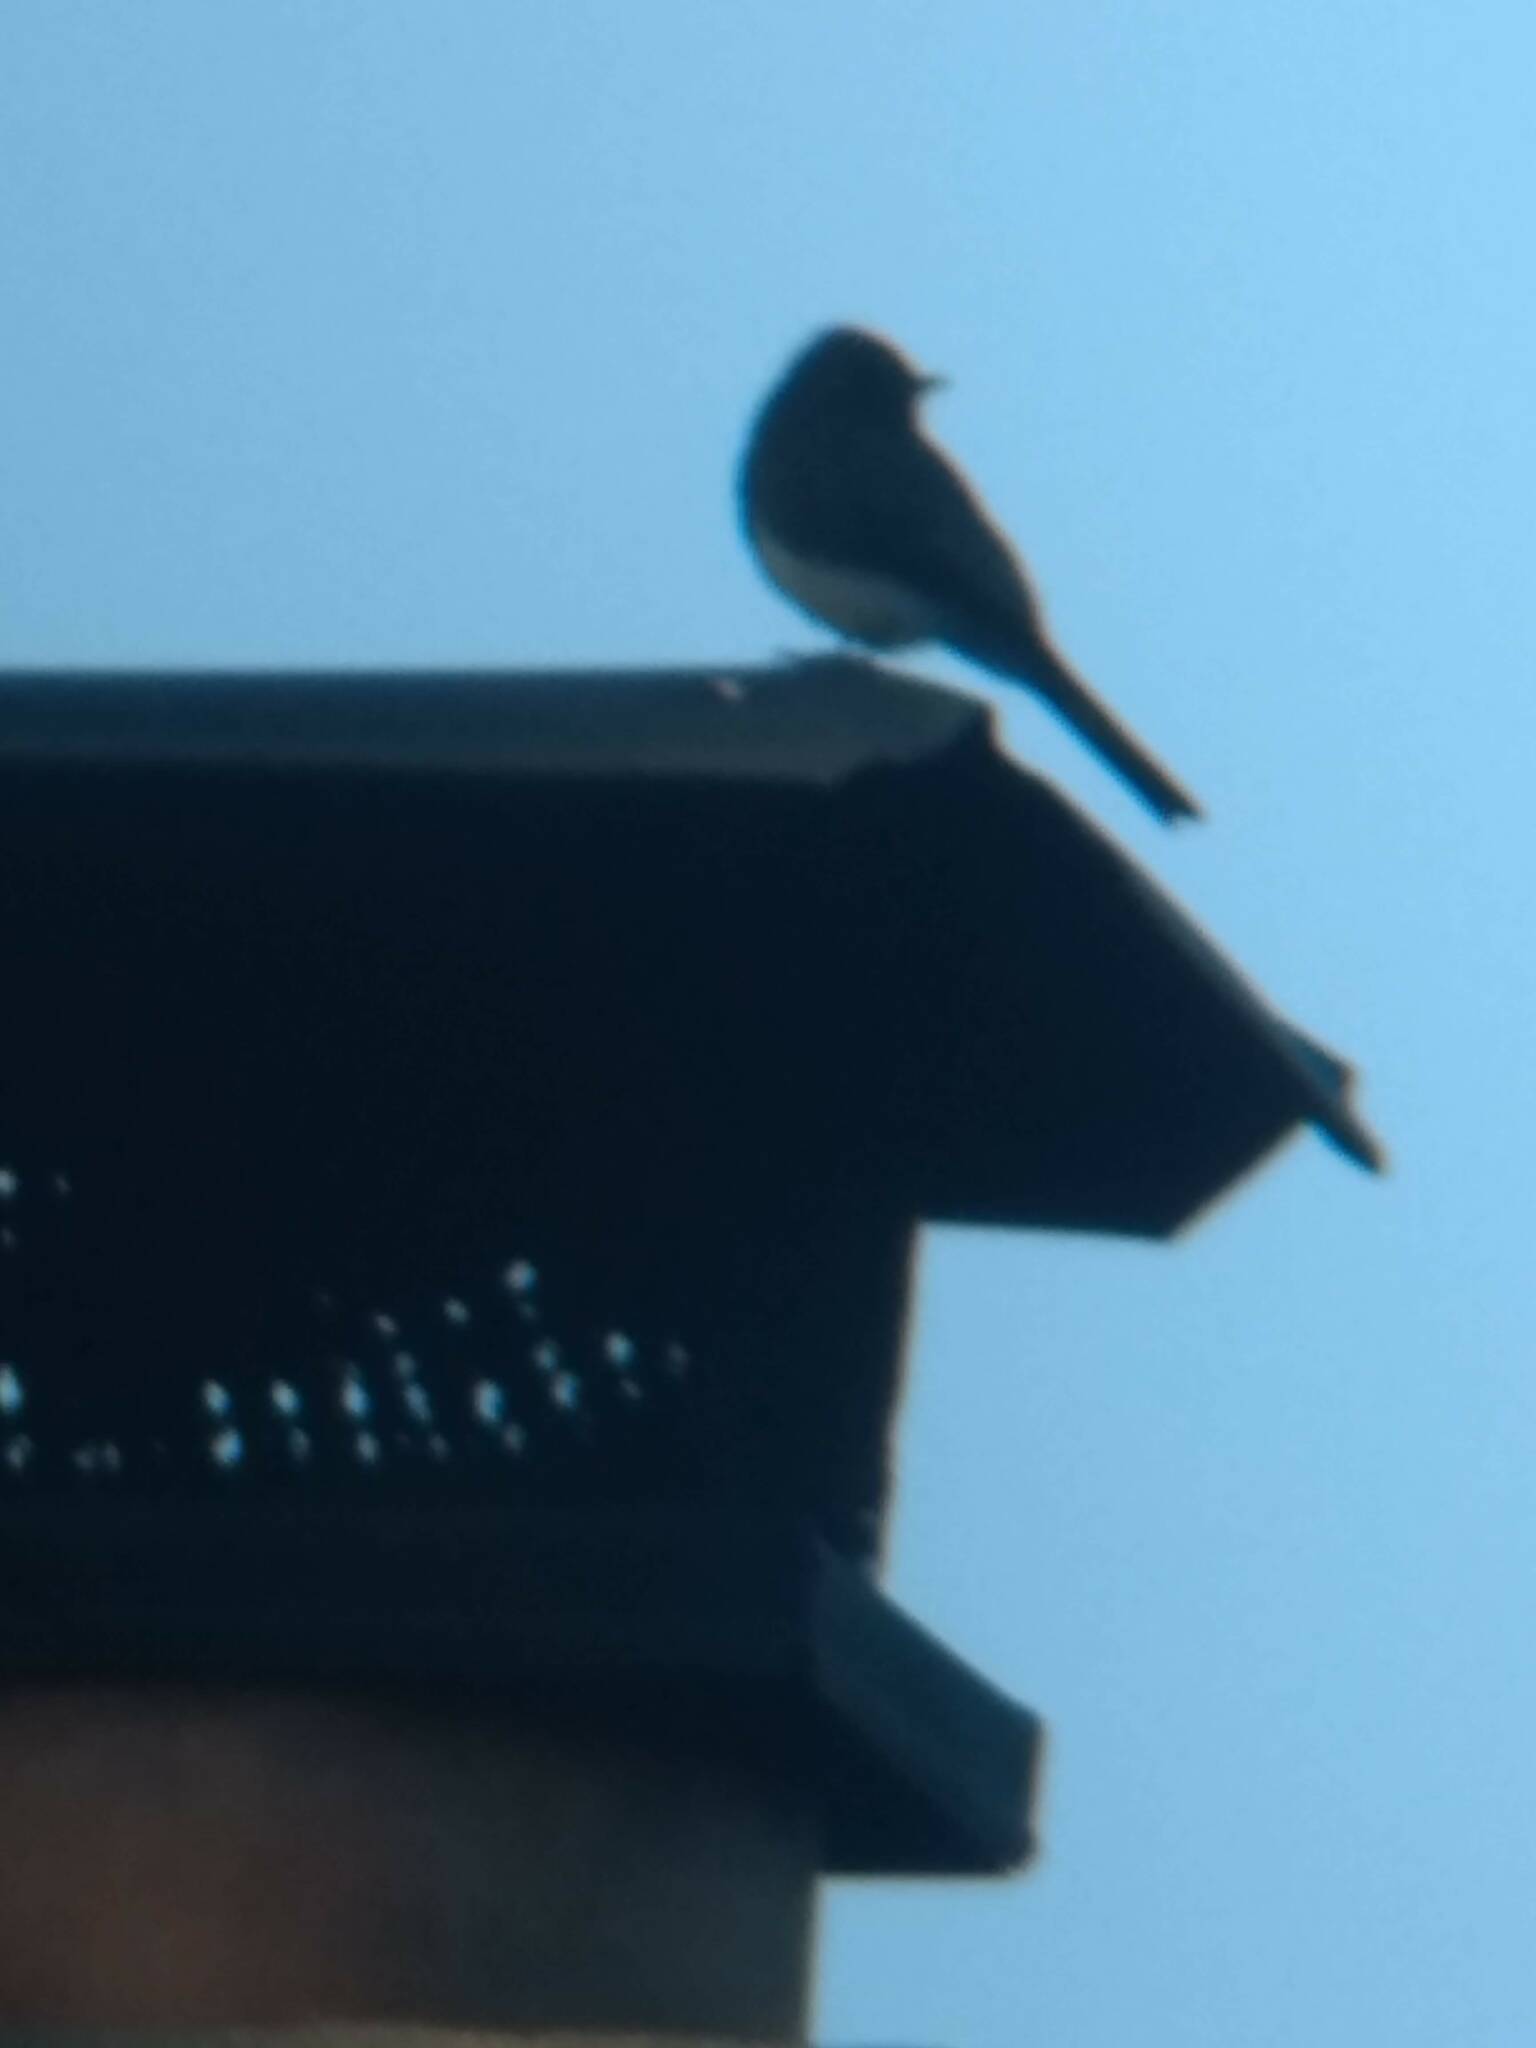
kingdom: Animalia
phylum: Chordata
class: Aves
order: Passeriformes
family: Tyrannidae
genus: Sayornis
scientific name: Sayornis nigricans
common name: Black phoebe
